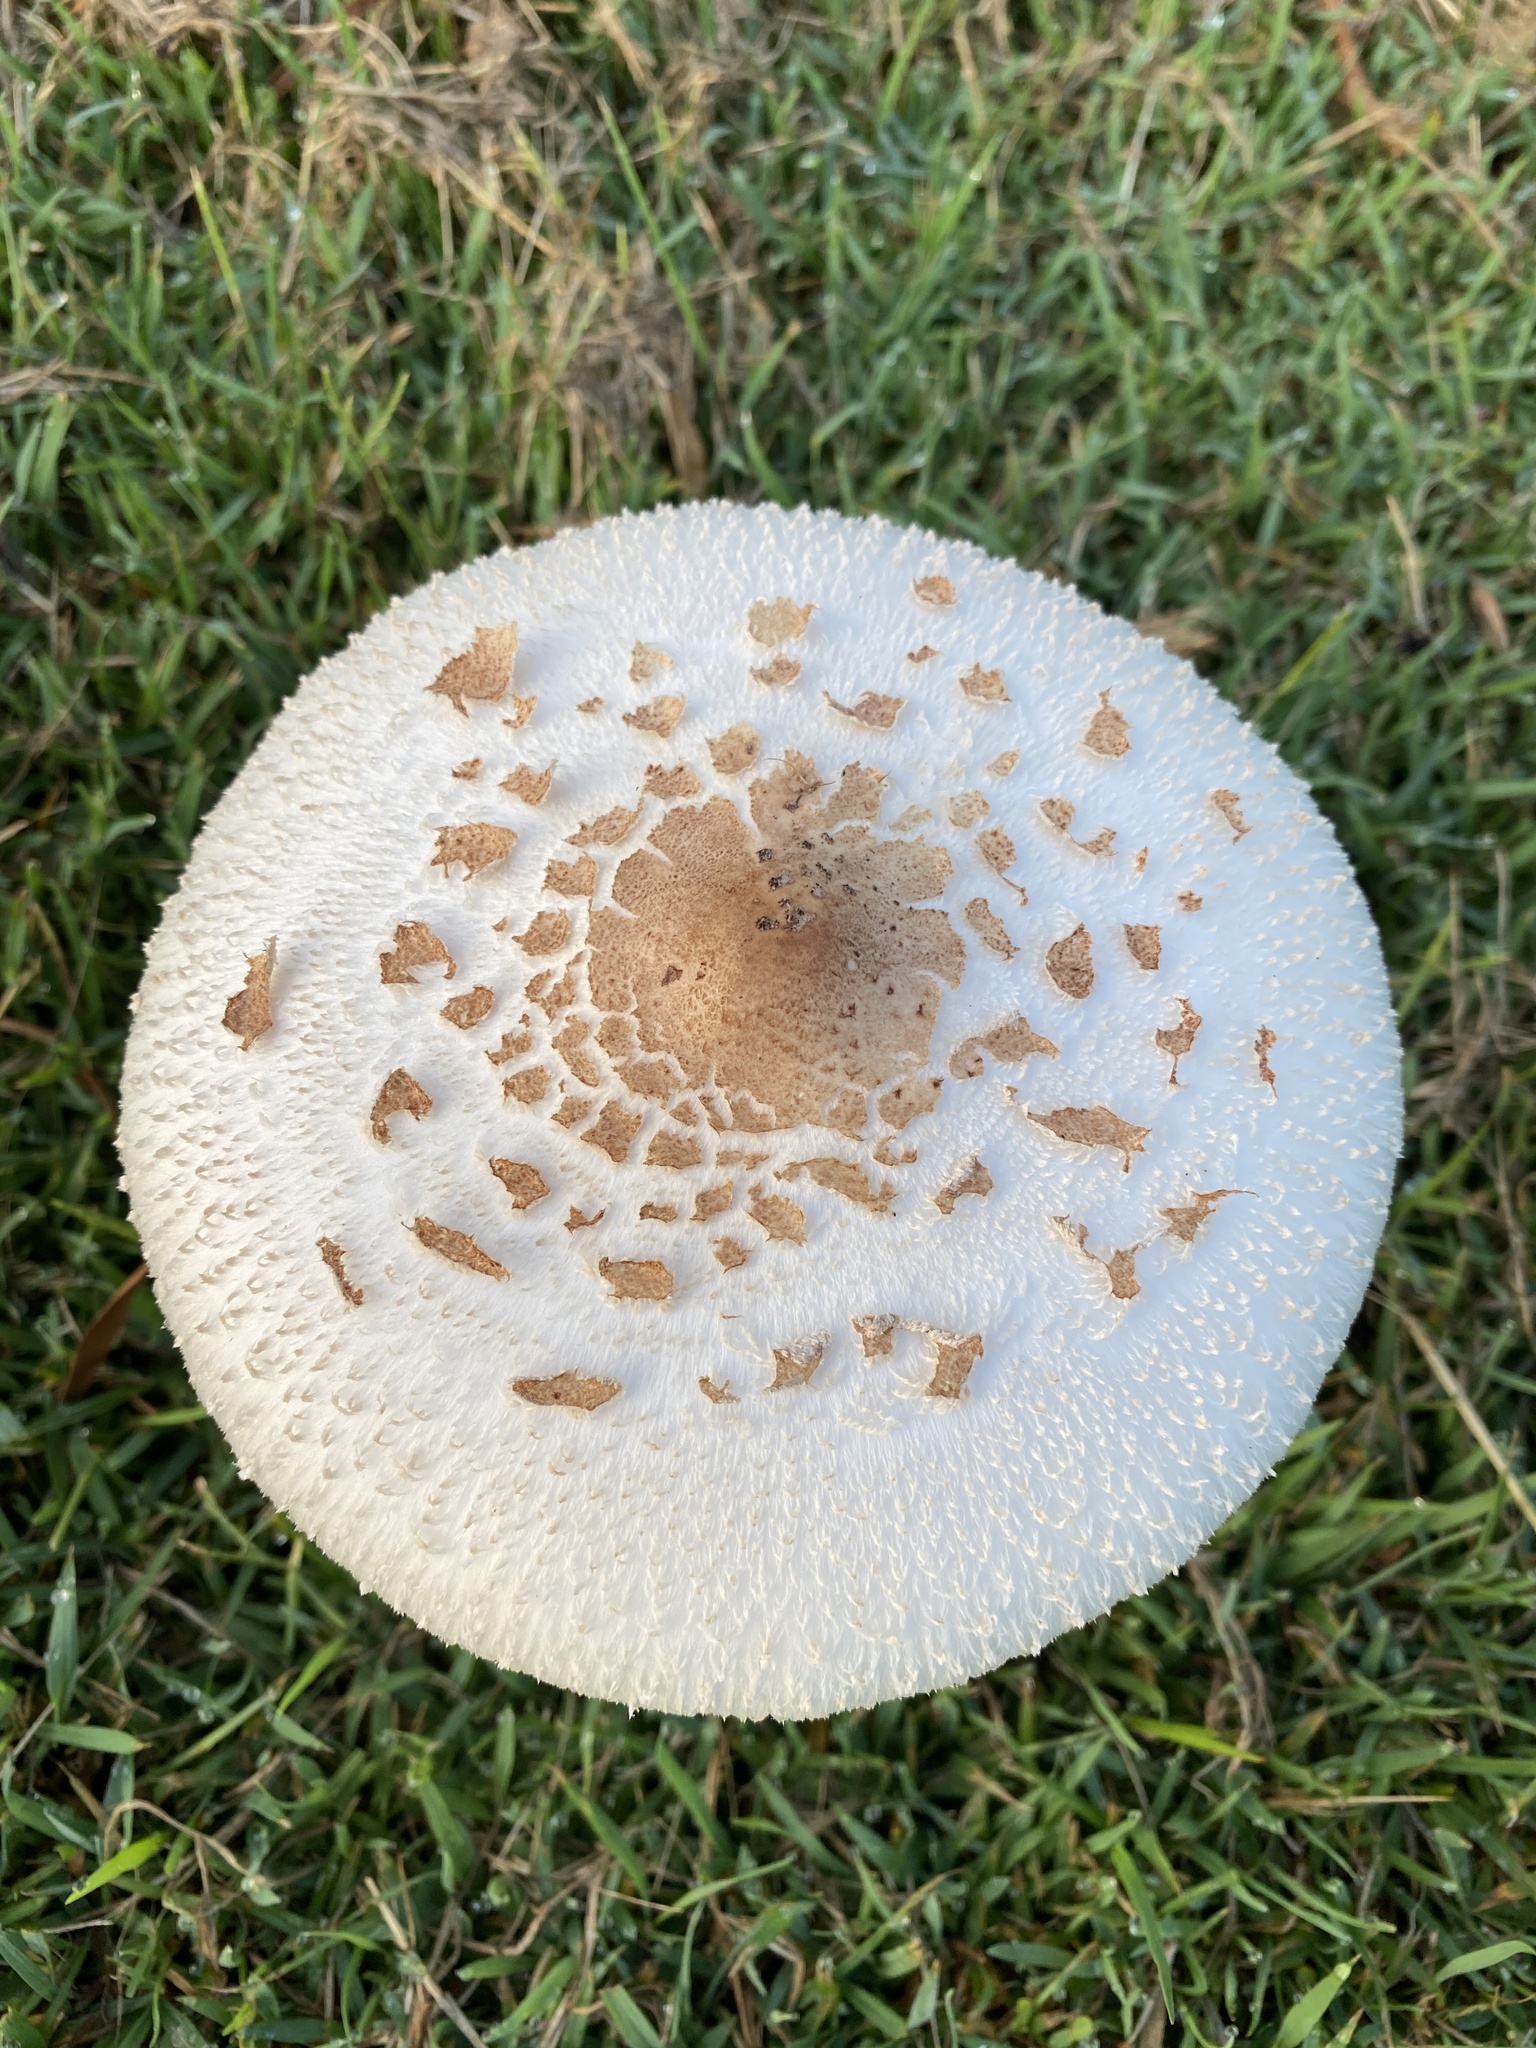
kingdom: Fungi
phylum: Basidiomycota
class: Agaricomycetes
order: Agaricales
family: Agaricaceae
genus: Chlorophyllum
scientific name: Chlorophyllum molybdites
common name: False parasol
